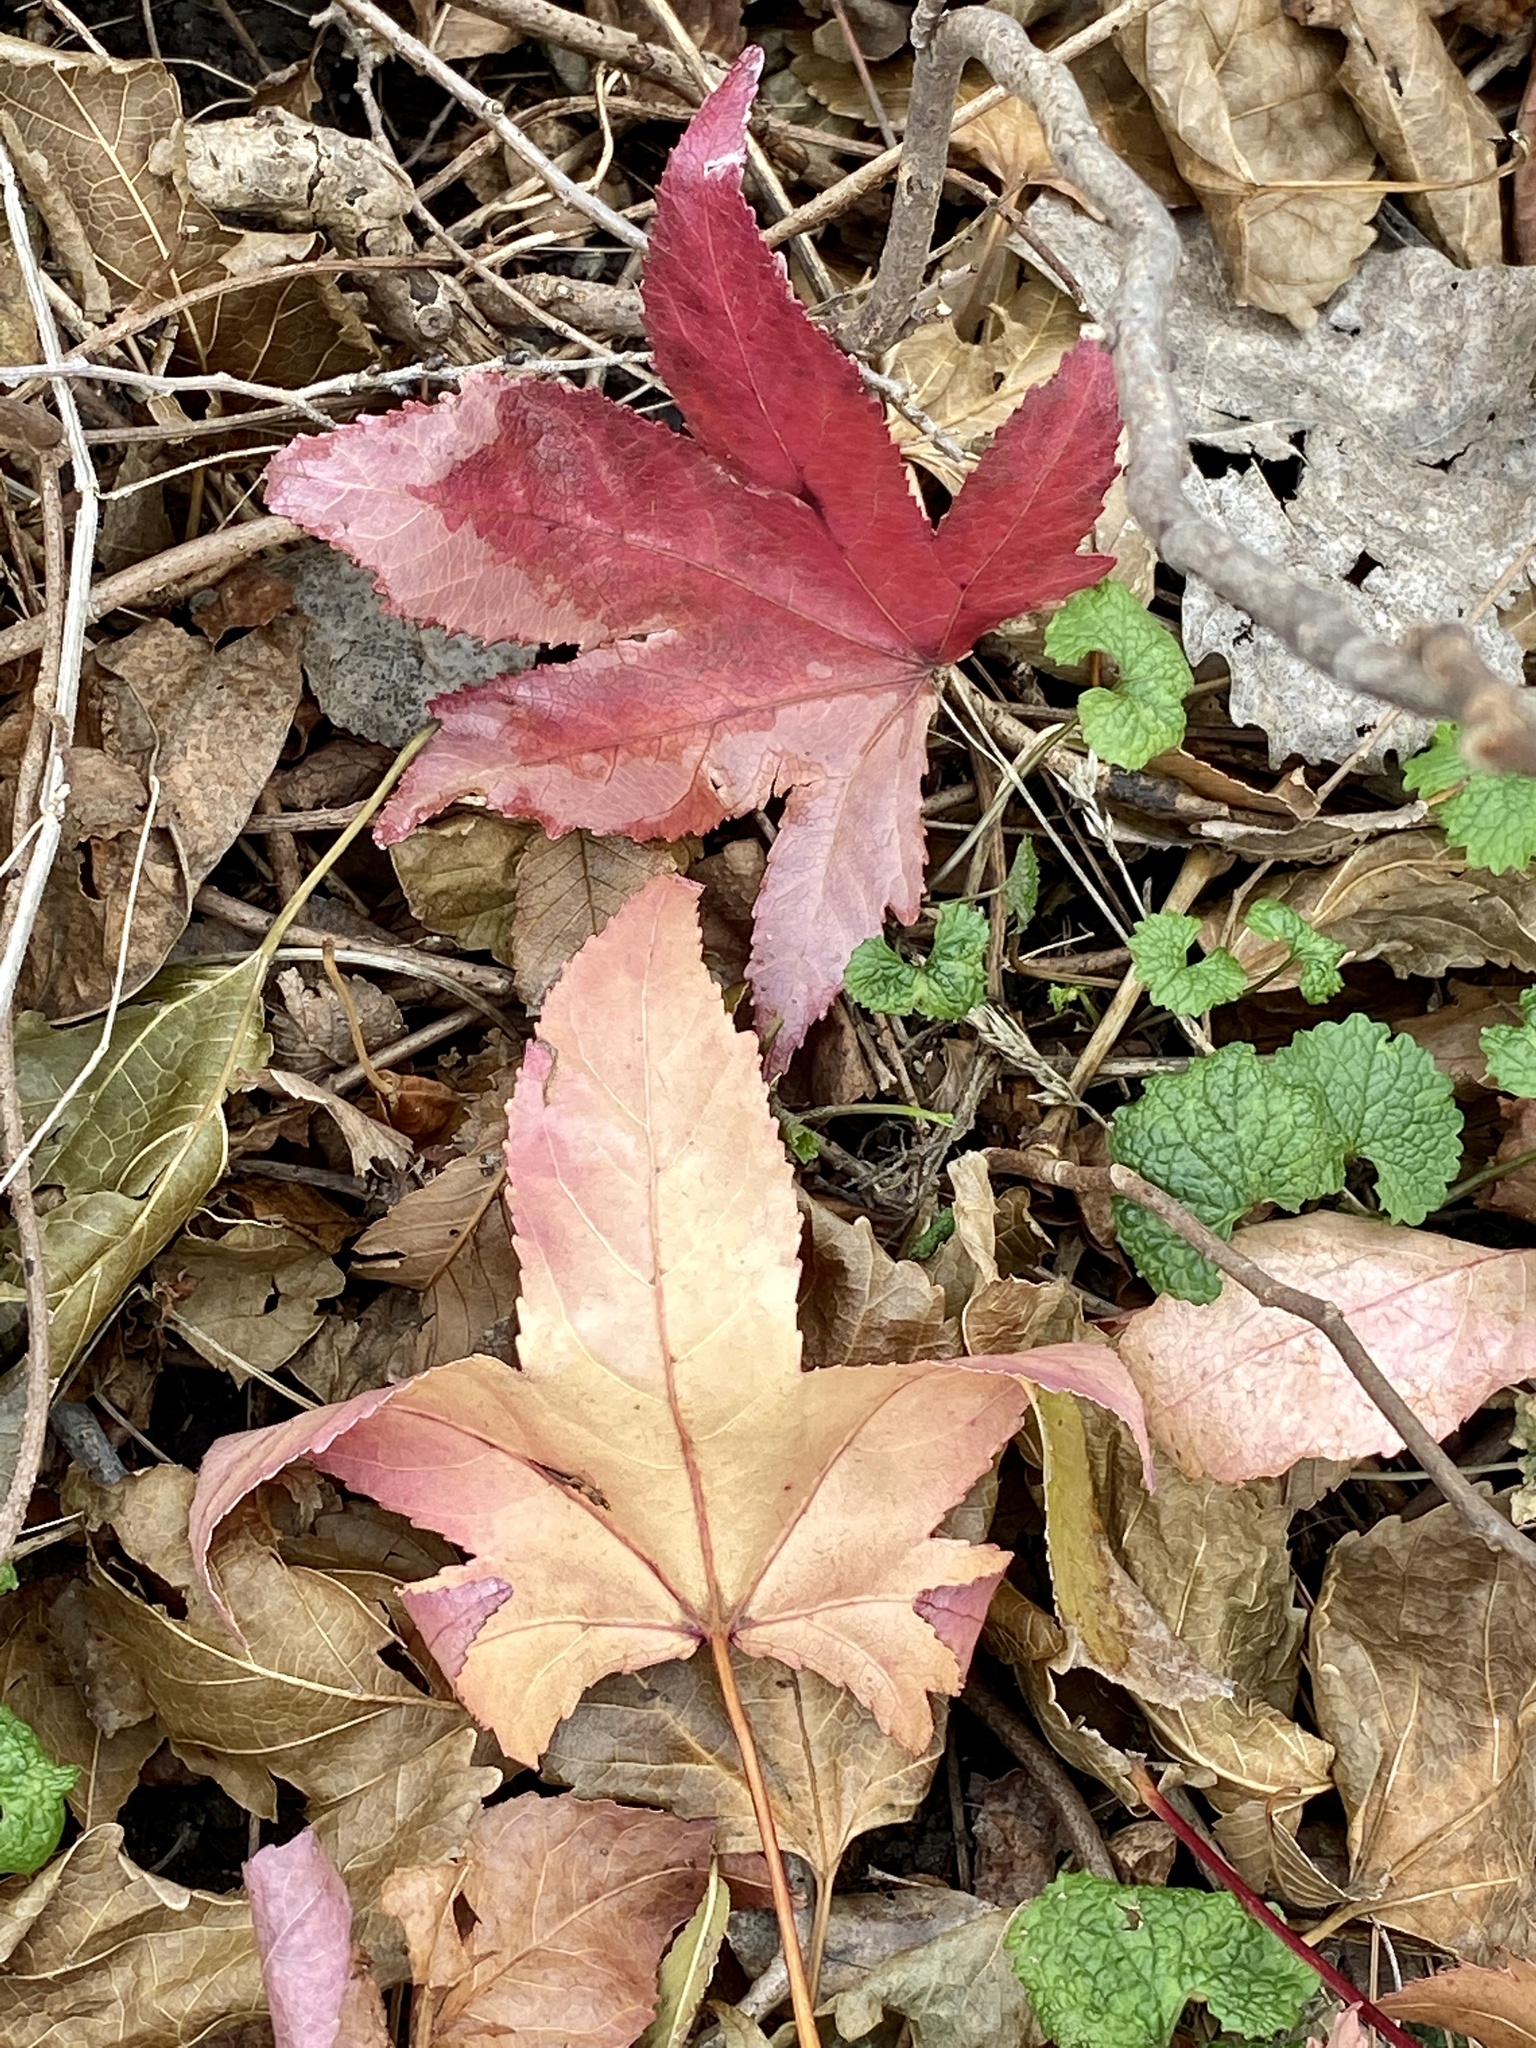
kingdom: Plantae
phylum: Tracheophyta
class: Magnoliopsida
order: Saxifragales
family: Altingiaceae
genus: Liquidambar
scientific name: Liquidambar styraciflua
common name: Sweet gum
